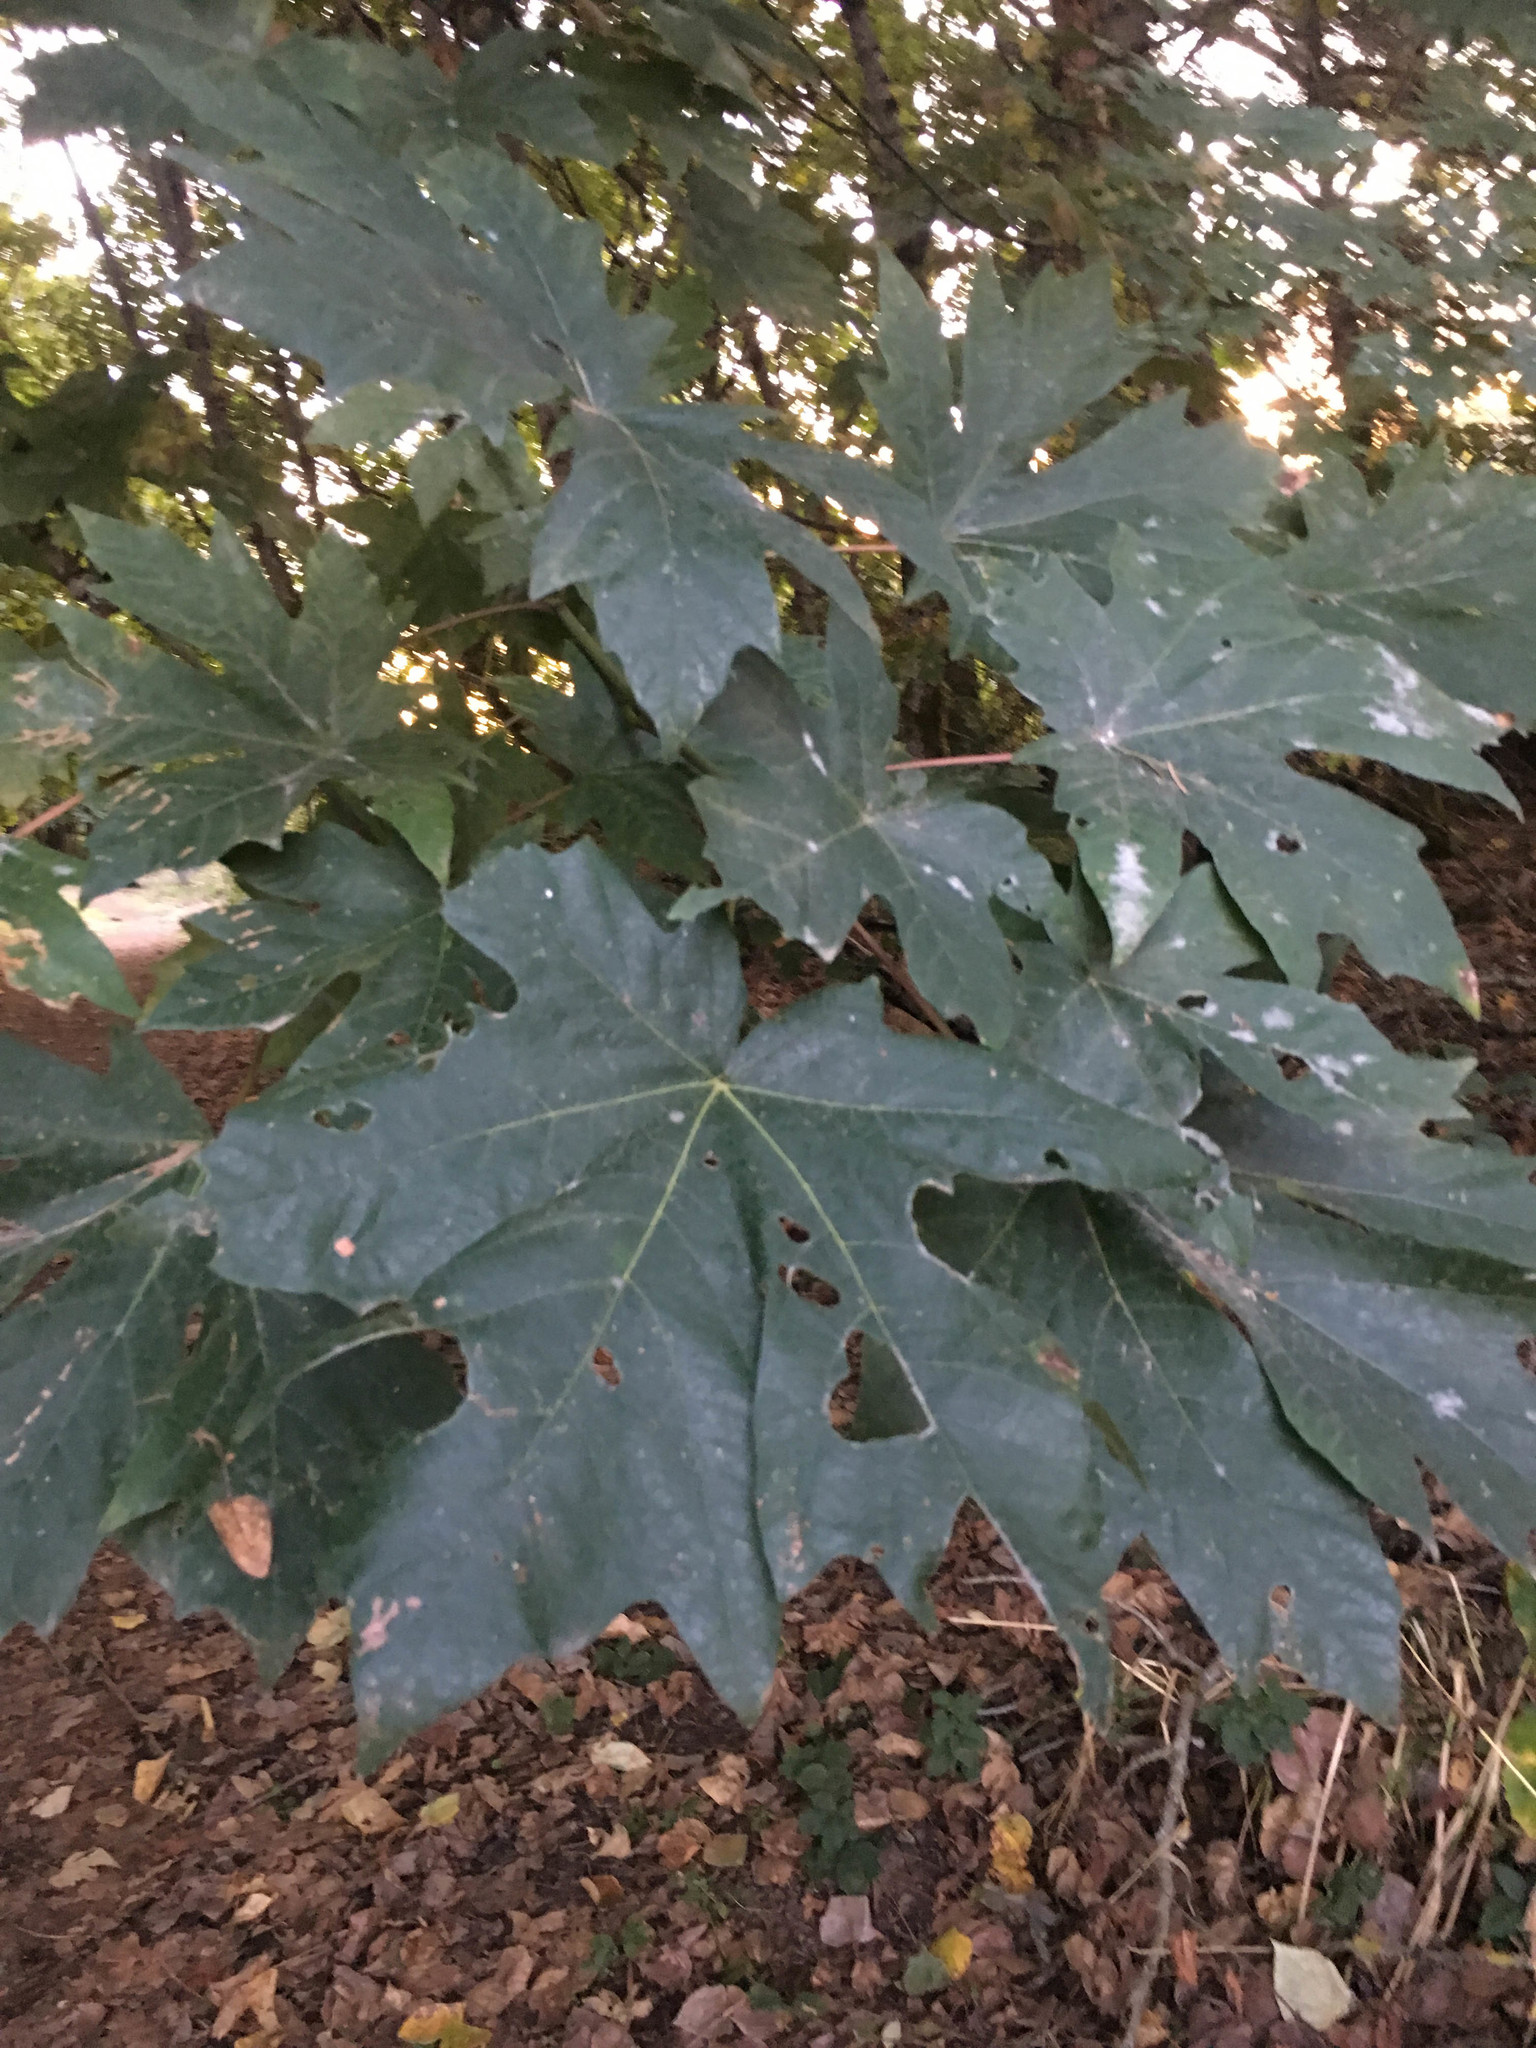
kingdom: Plantae
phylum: Tracheophyta
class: Magnoliopsida
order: Sapindales
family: Sapindaceae
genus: Acer
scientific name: Acer macrophyllum
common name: Oregon maple
